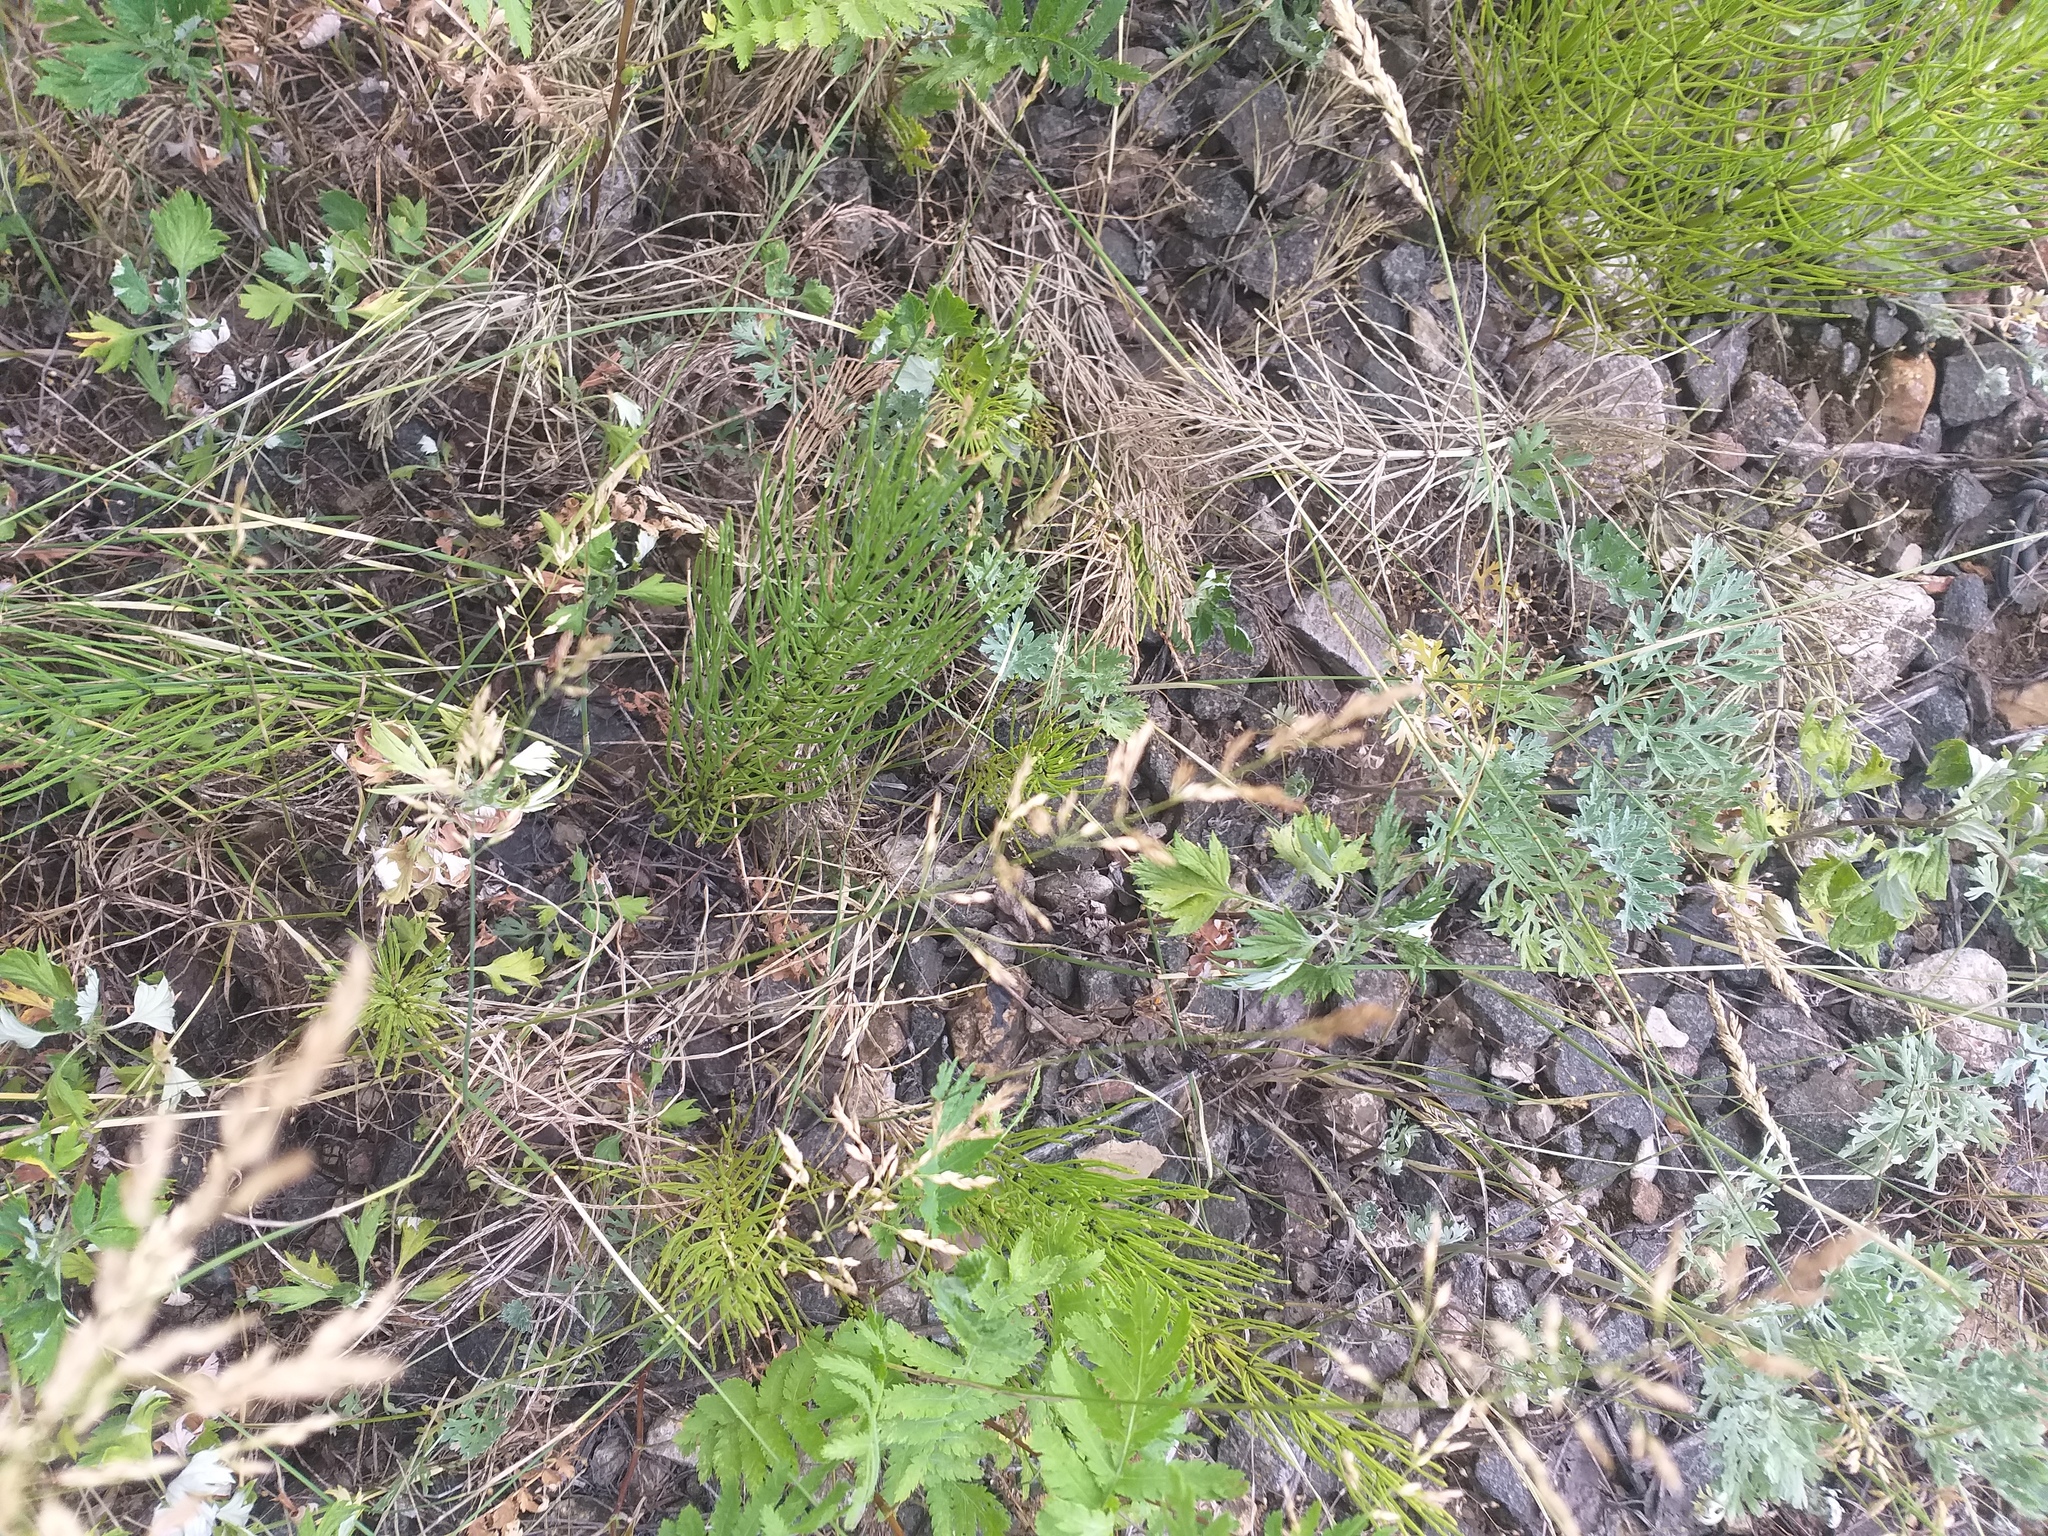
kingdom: Plantae
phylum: Tracheophyta
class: Polypodiopsida
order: Equisetales
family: Equisetaceae
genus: Equisetum
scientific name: Equisetum arvense
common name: Field horsetail
